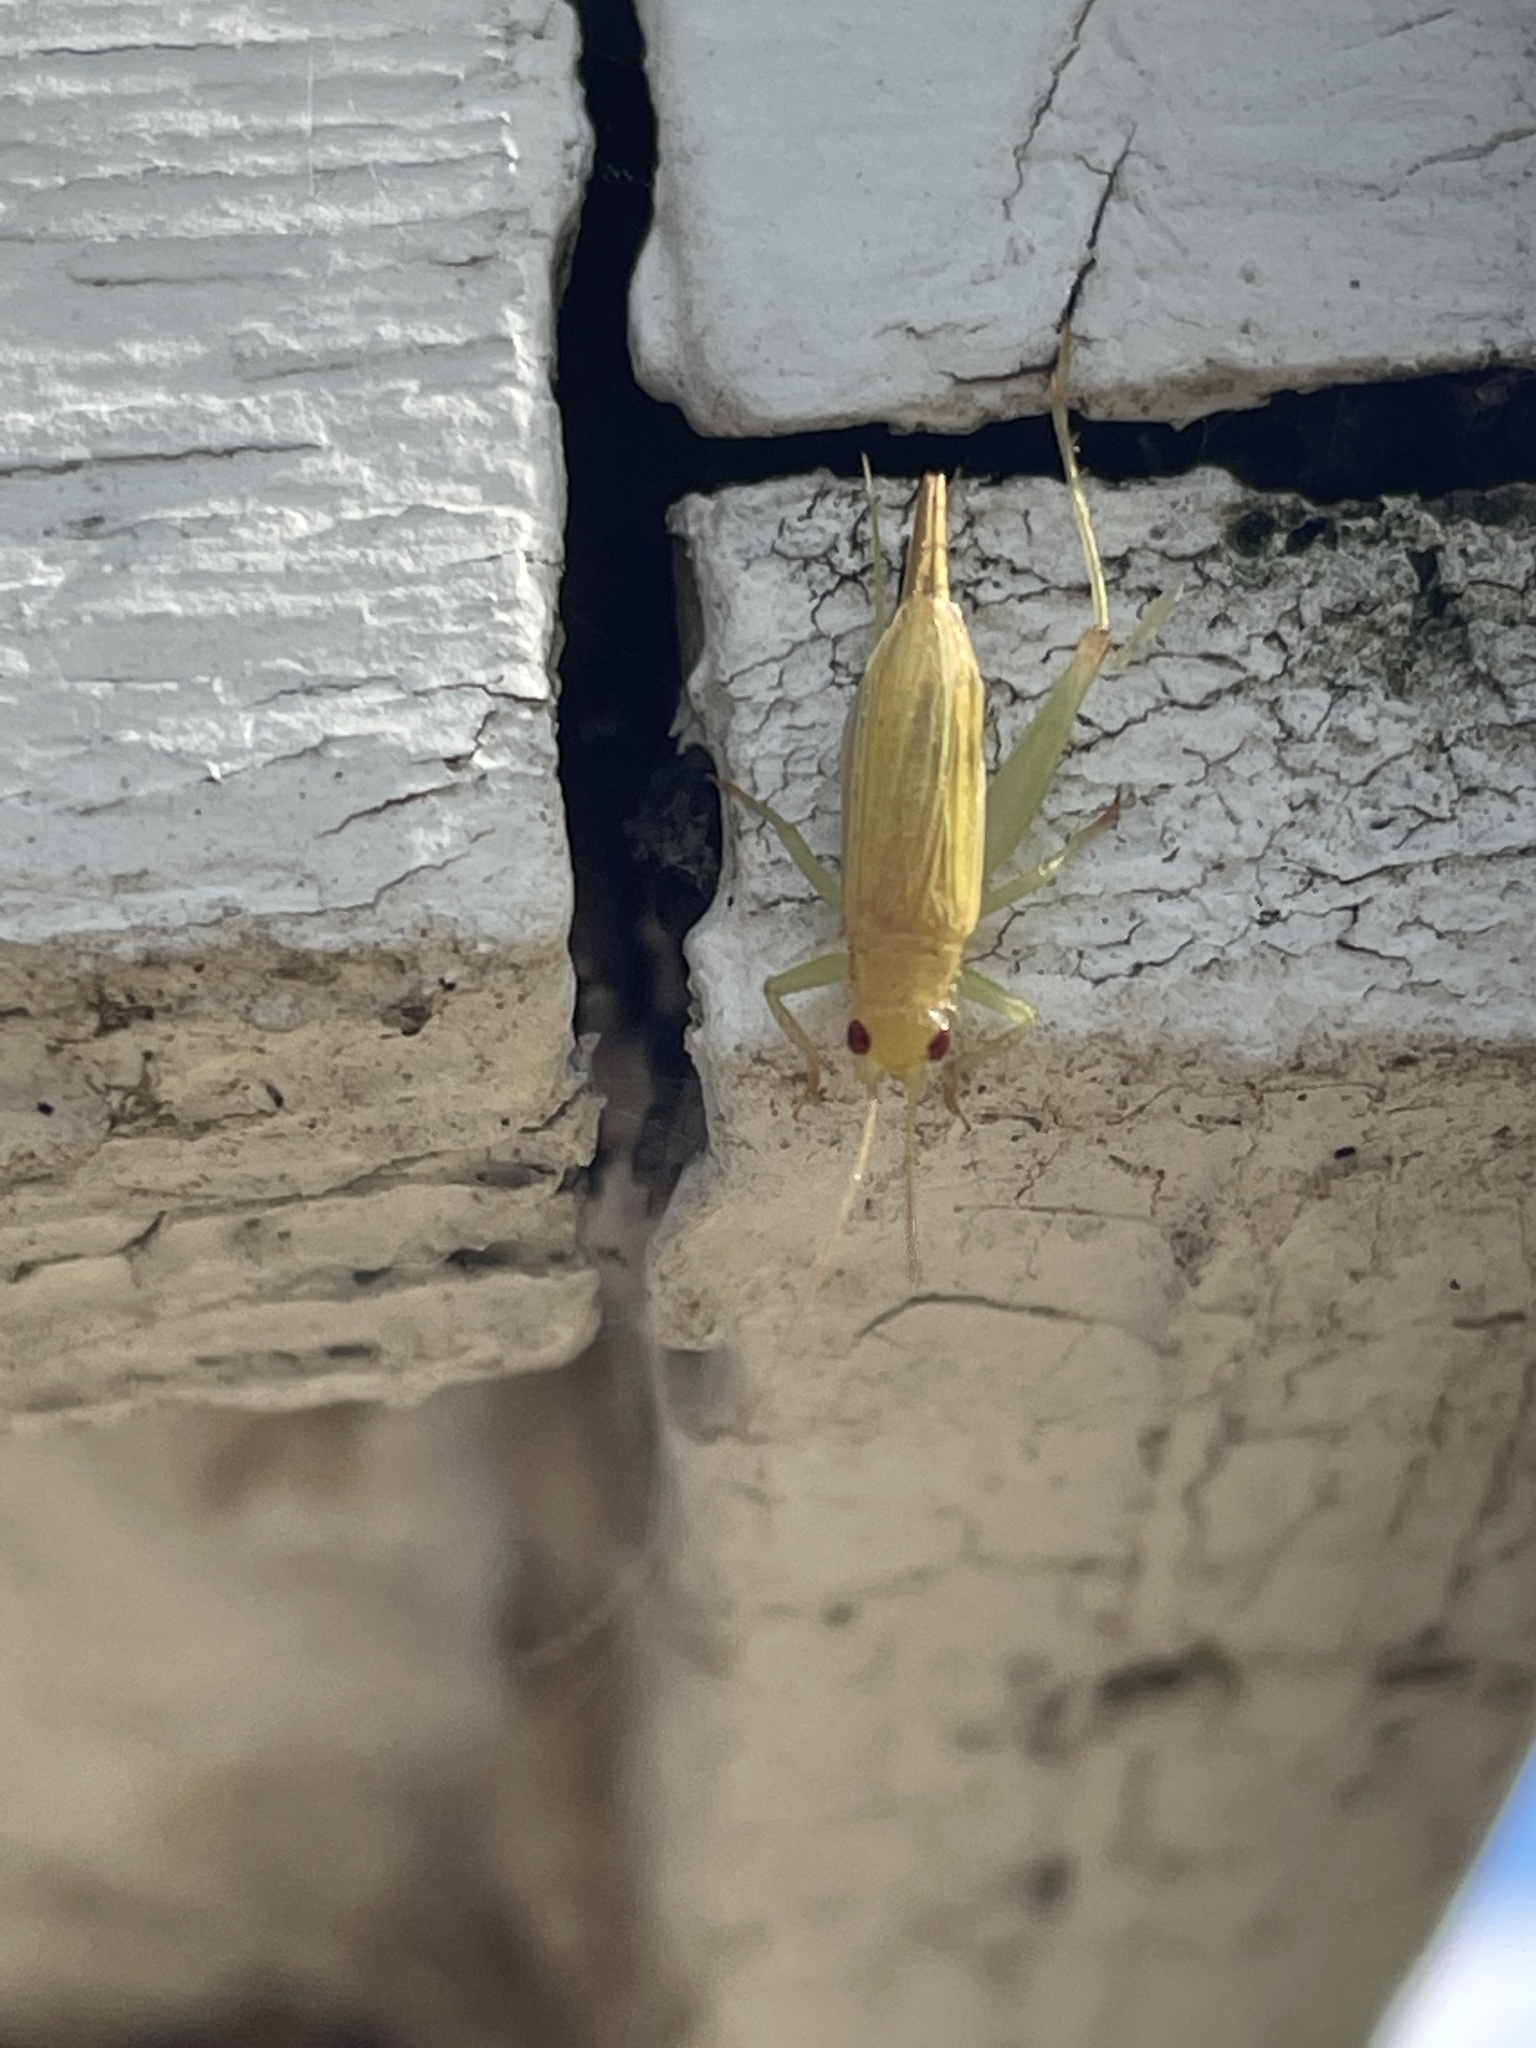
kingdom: Animalia
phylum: Arthropoda
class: Insecta
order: Orthoptera
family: Trigonidiidae
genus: Cyrtoxipha
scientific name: Cyrtoxipha columbiana
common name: Columbian trig
